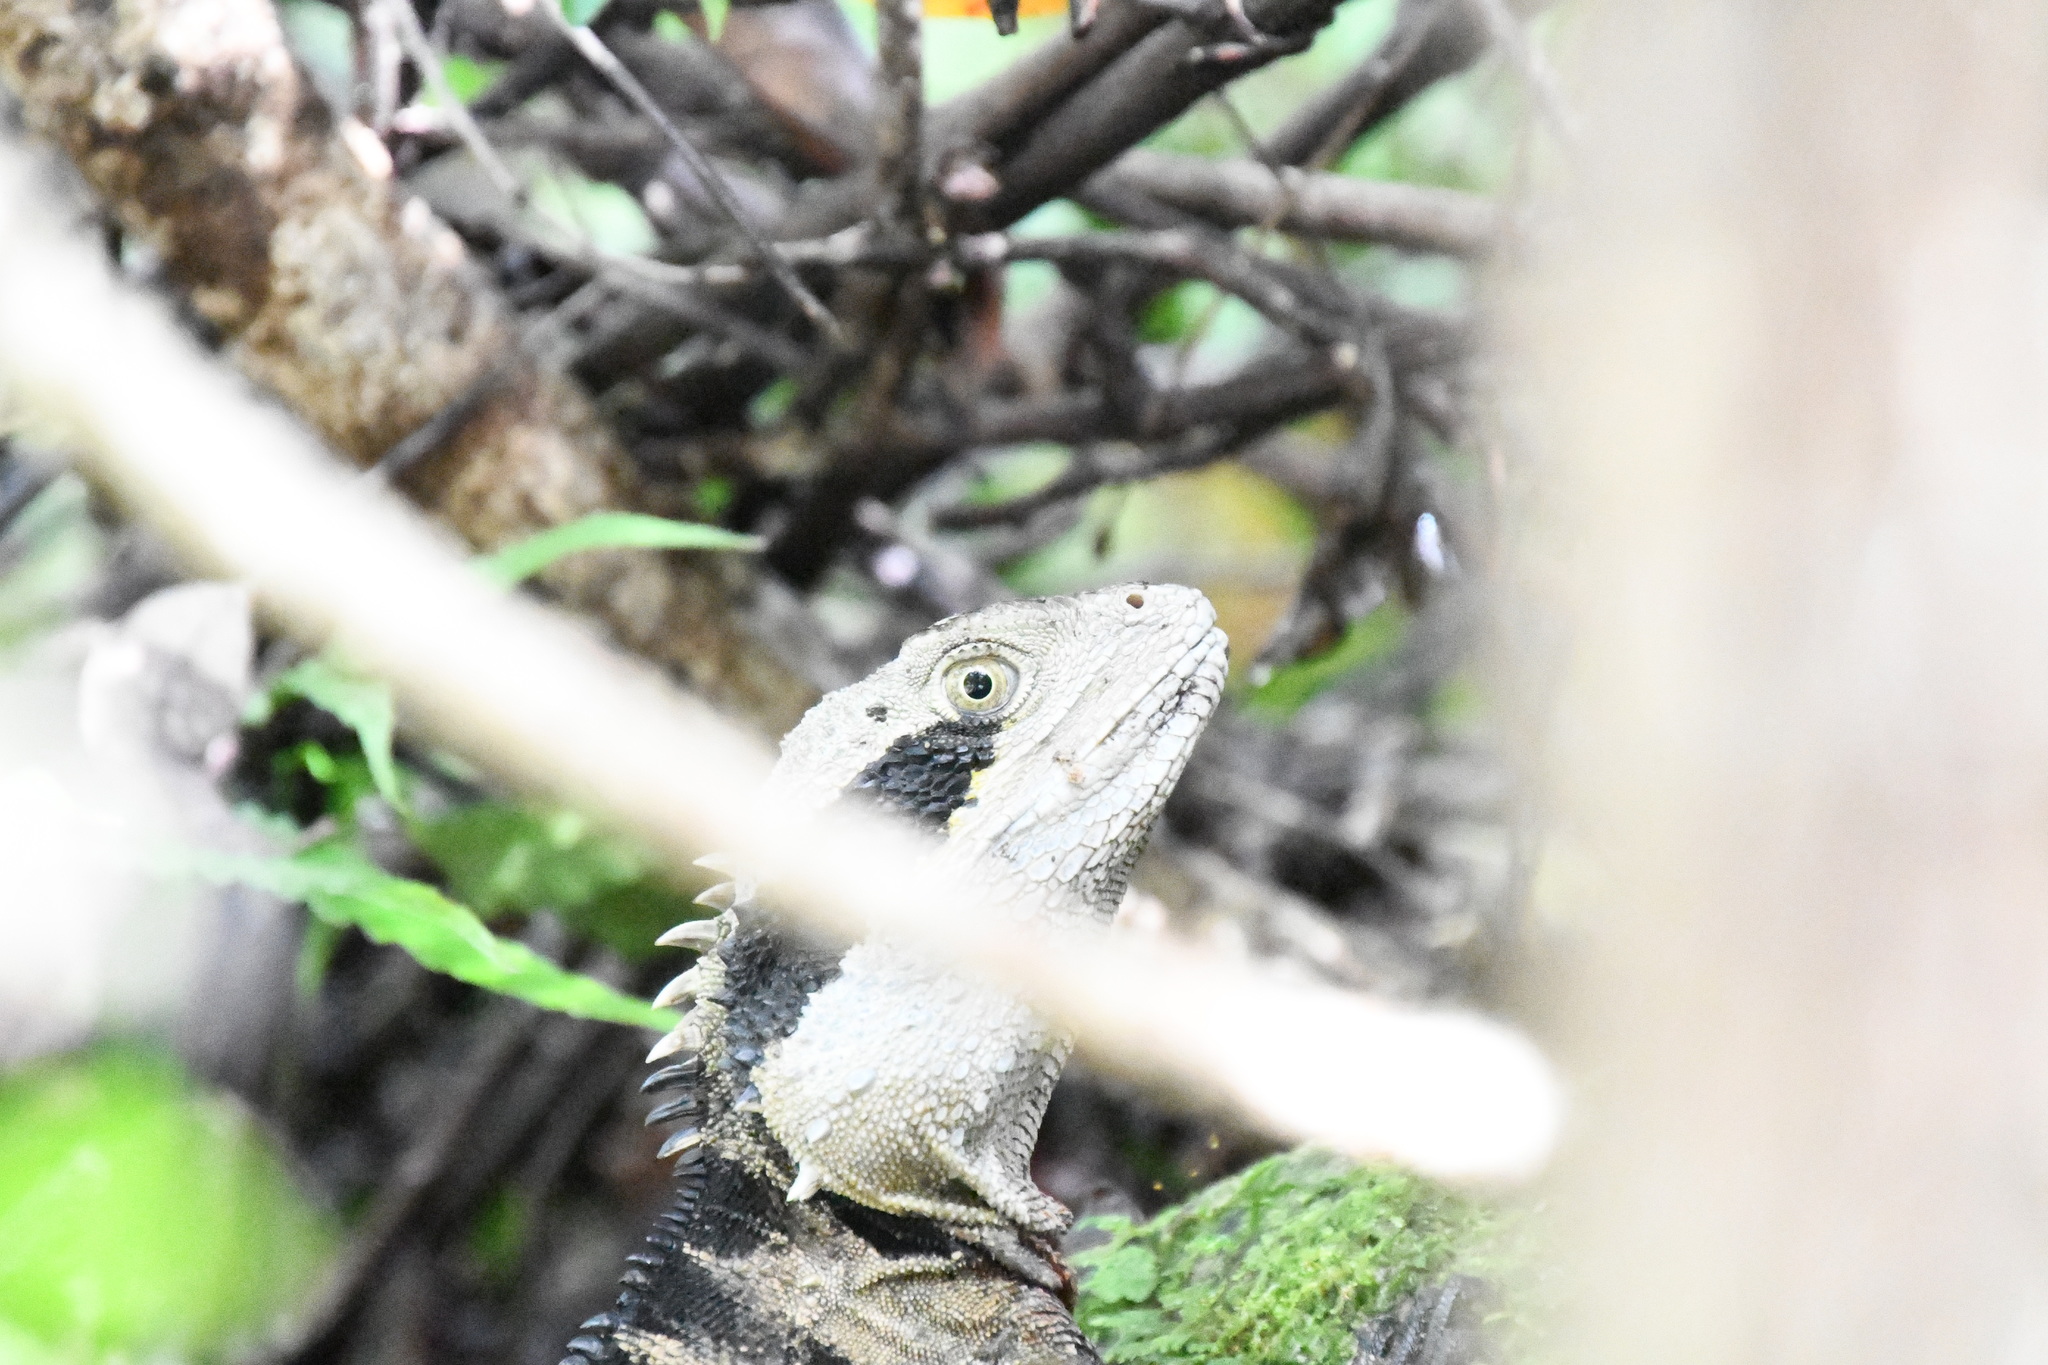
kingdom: Animalia
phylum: Chordata
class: Squamata
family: Agamidae
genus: Intellagama
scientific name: Intellagama lesueurii
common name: Eastern water dragon
